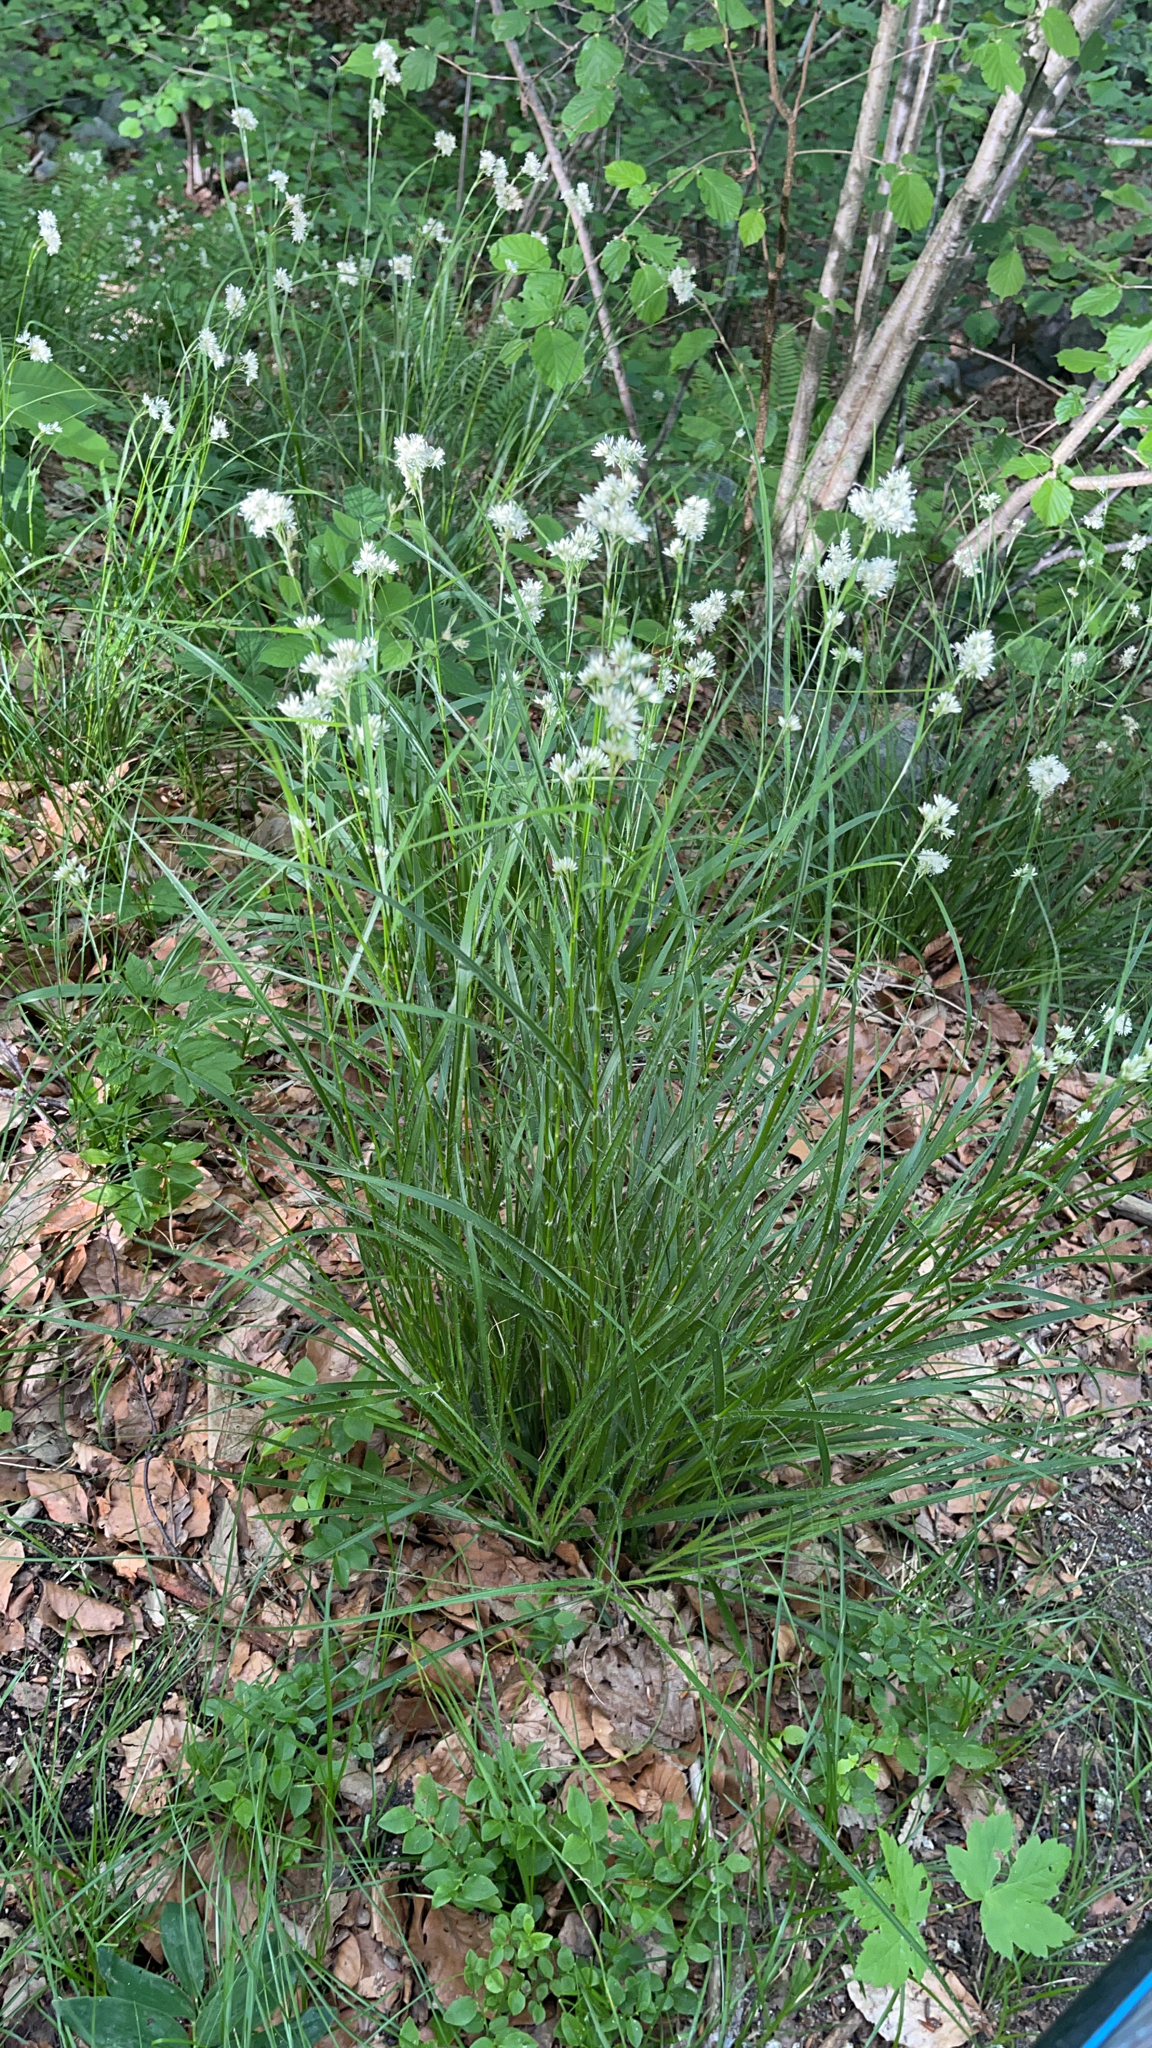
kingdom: Plantae
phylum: Tracheophyta
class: Liliopsida
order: Poales
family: Juncaceae
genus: Luzula
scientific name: Luzula nivea
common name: Snow-white wood-rush
